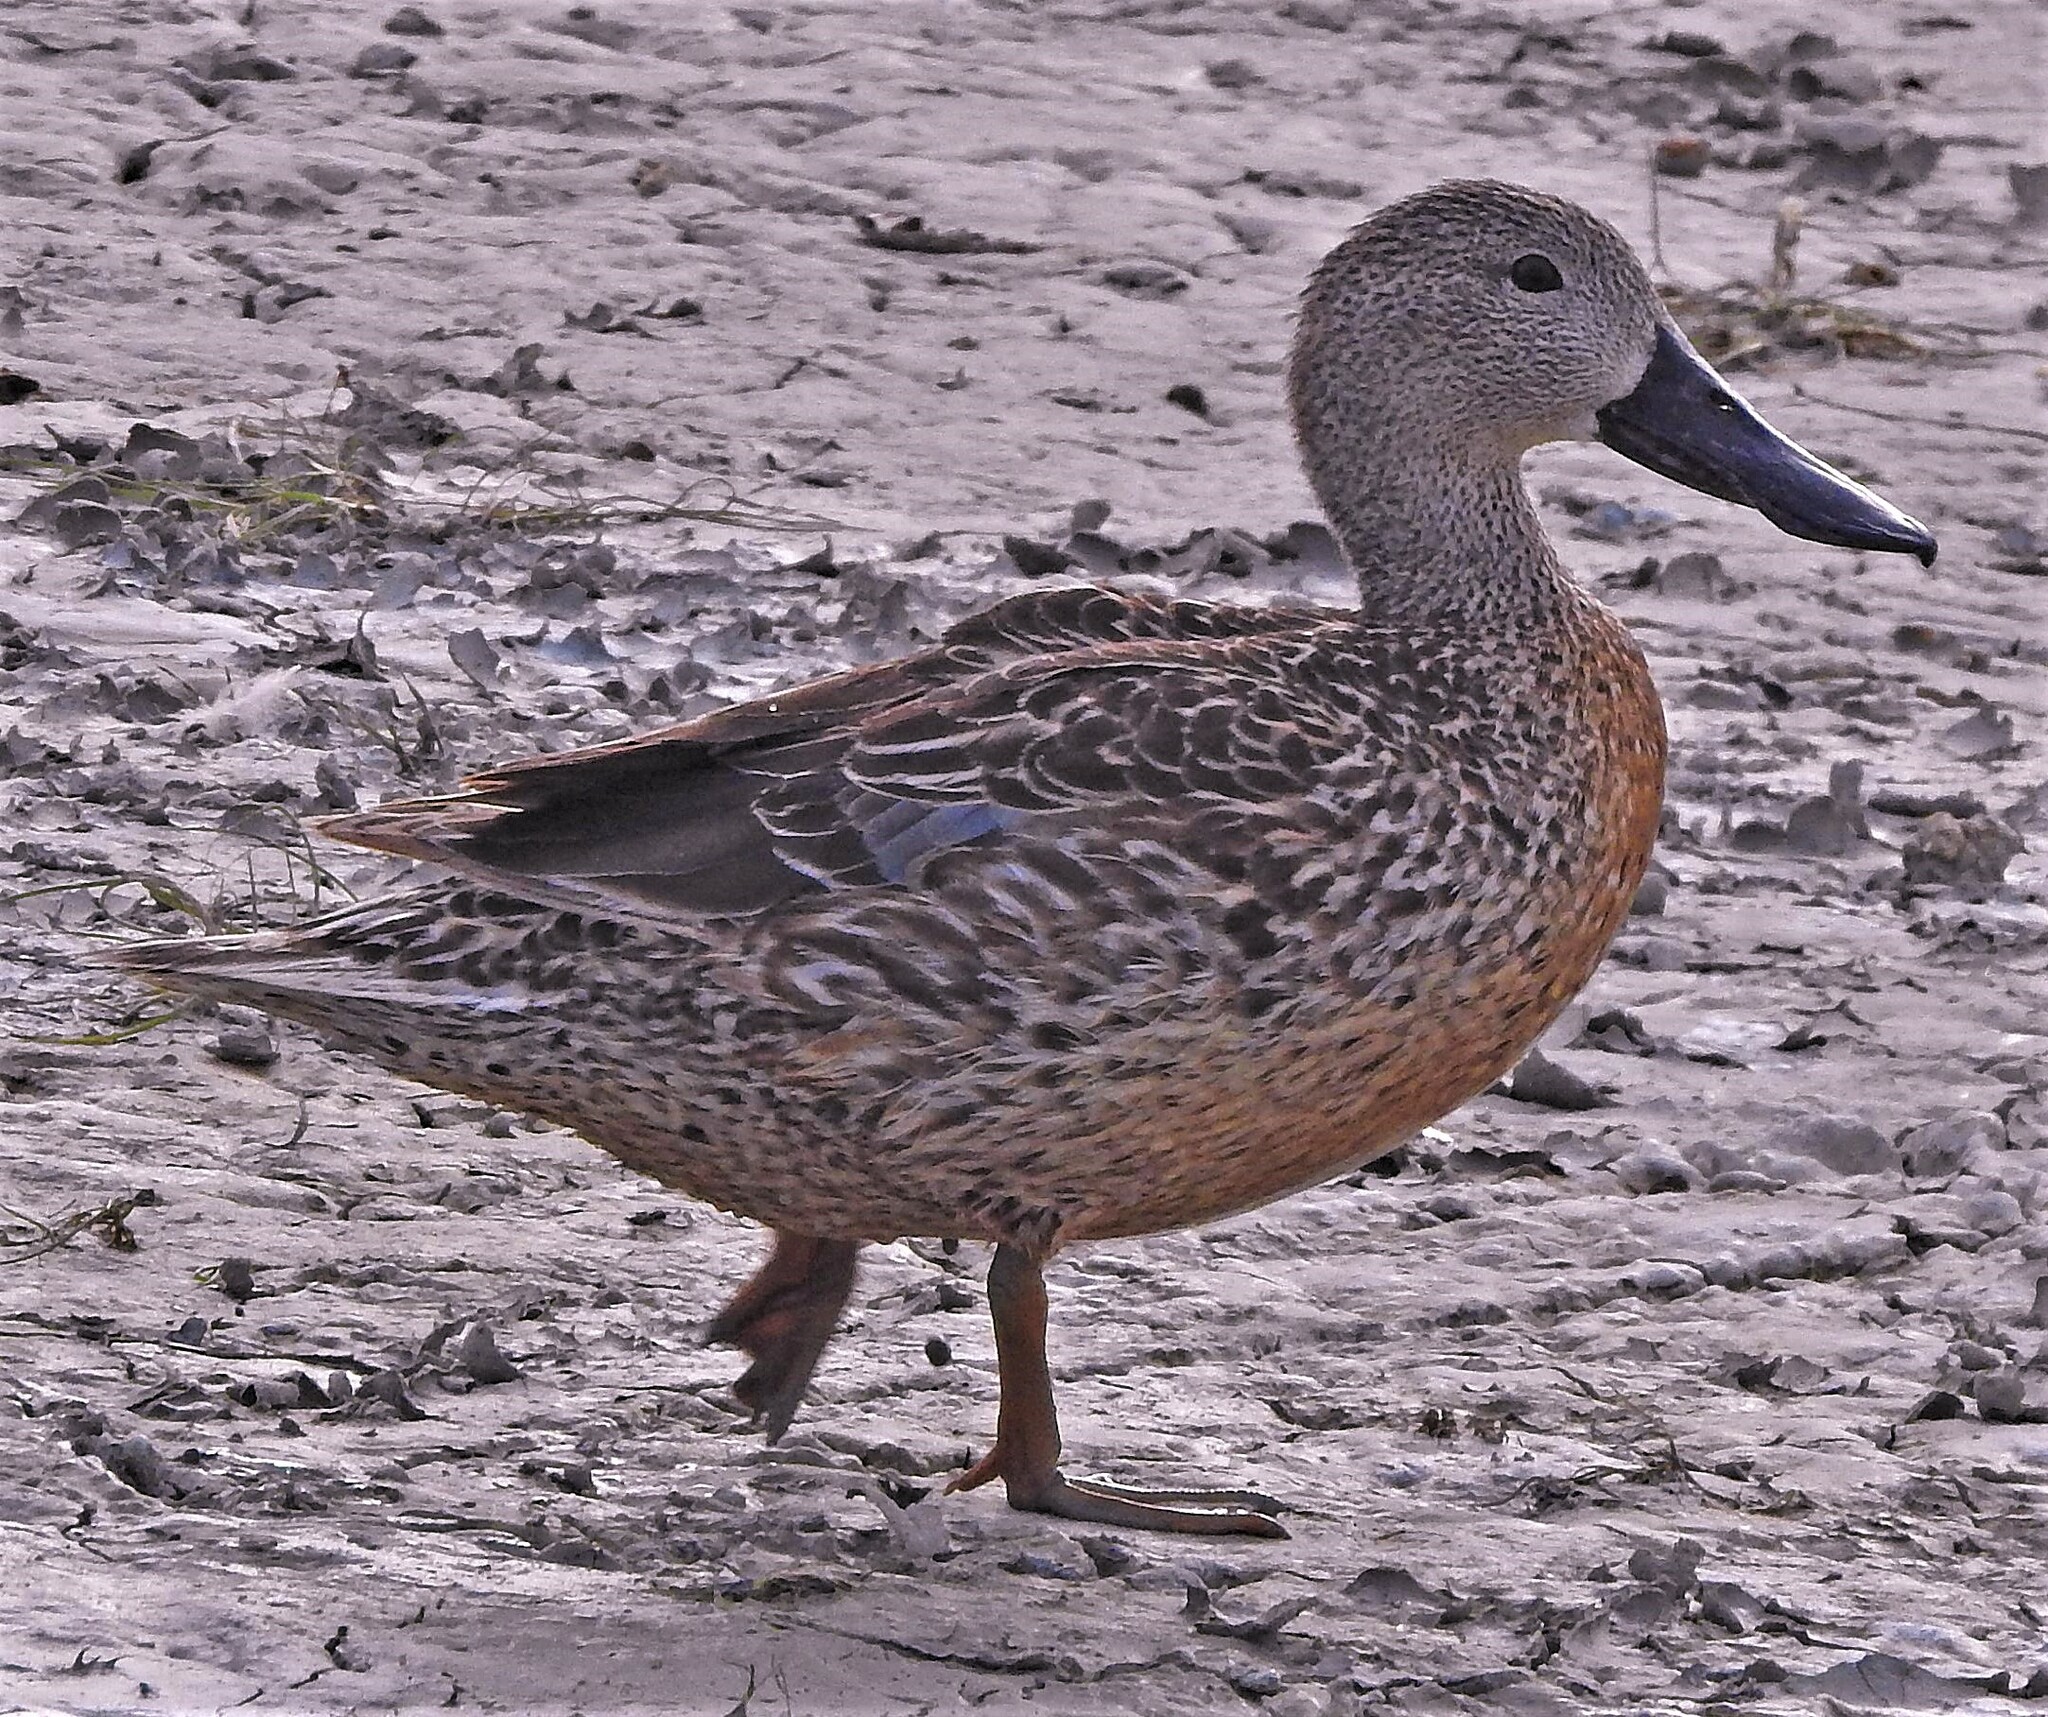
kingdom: Animalia
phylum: Chordata
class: Aves
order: Anseriformes
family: Anatidae
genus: Spatula
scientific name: Spatula platalea
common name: Red shoveler
